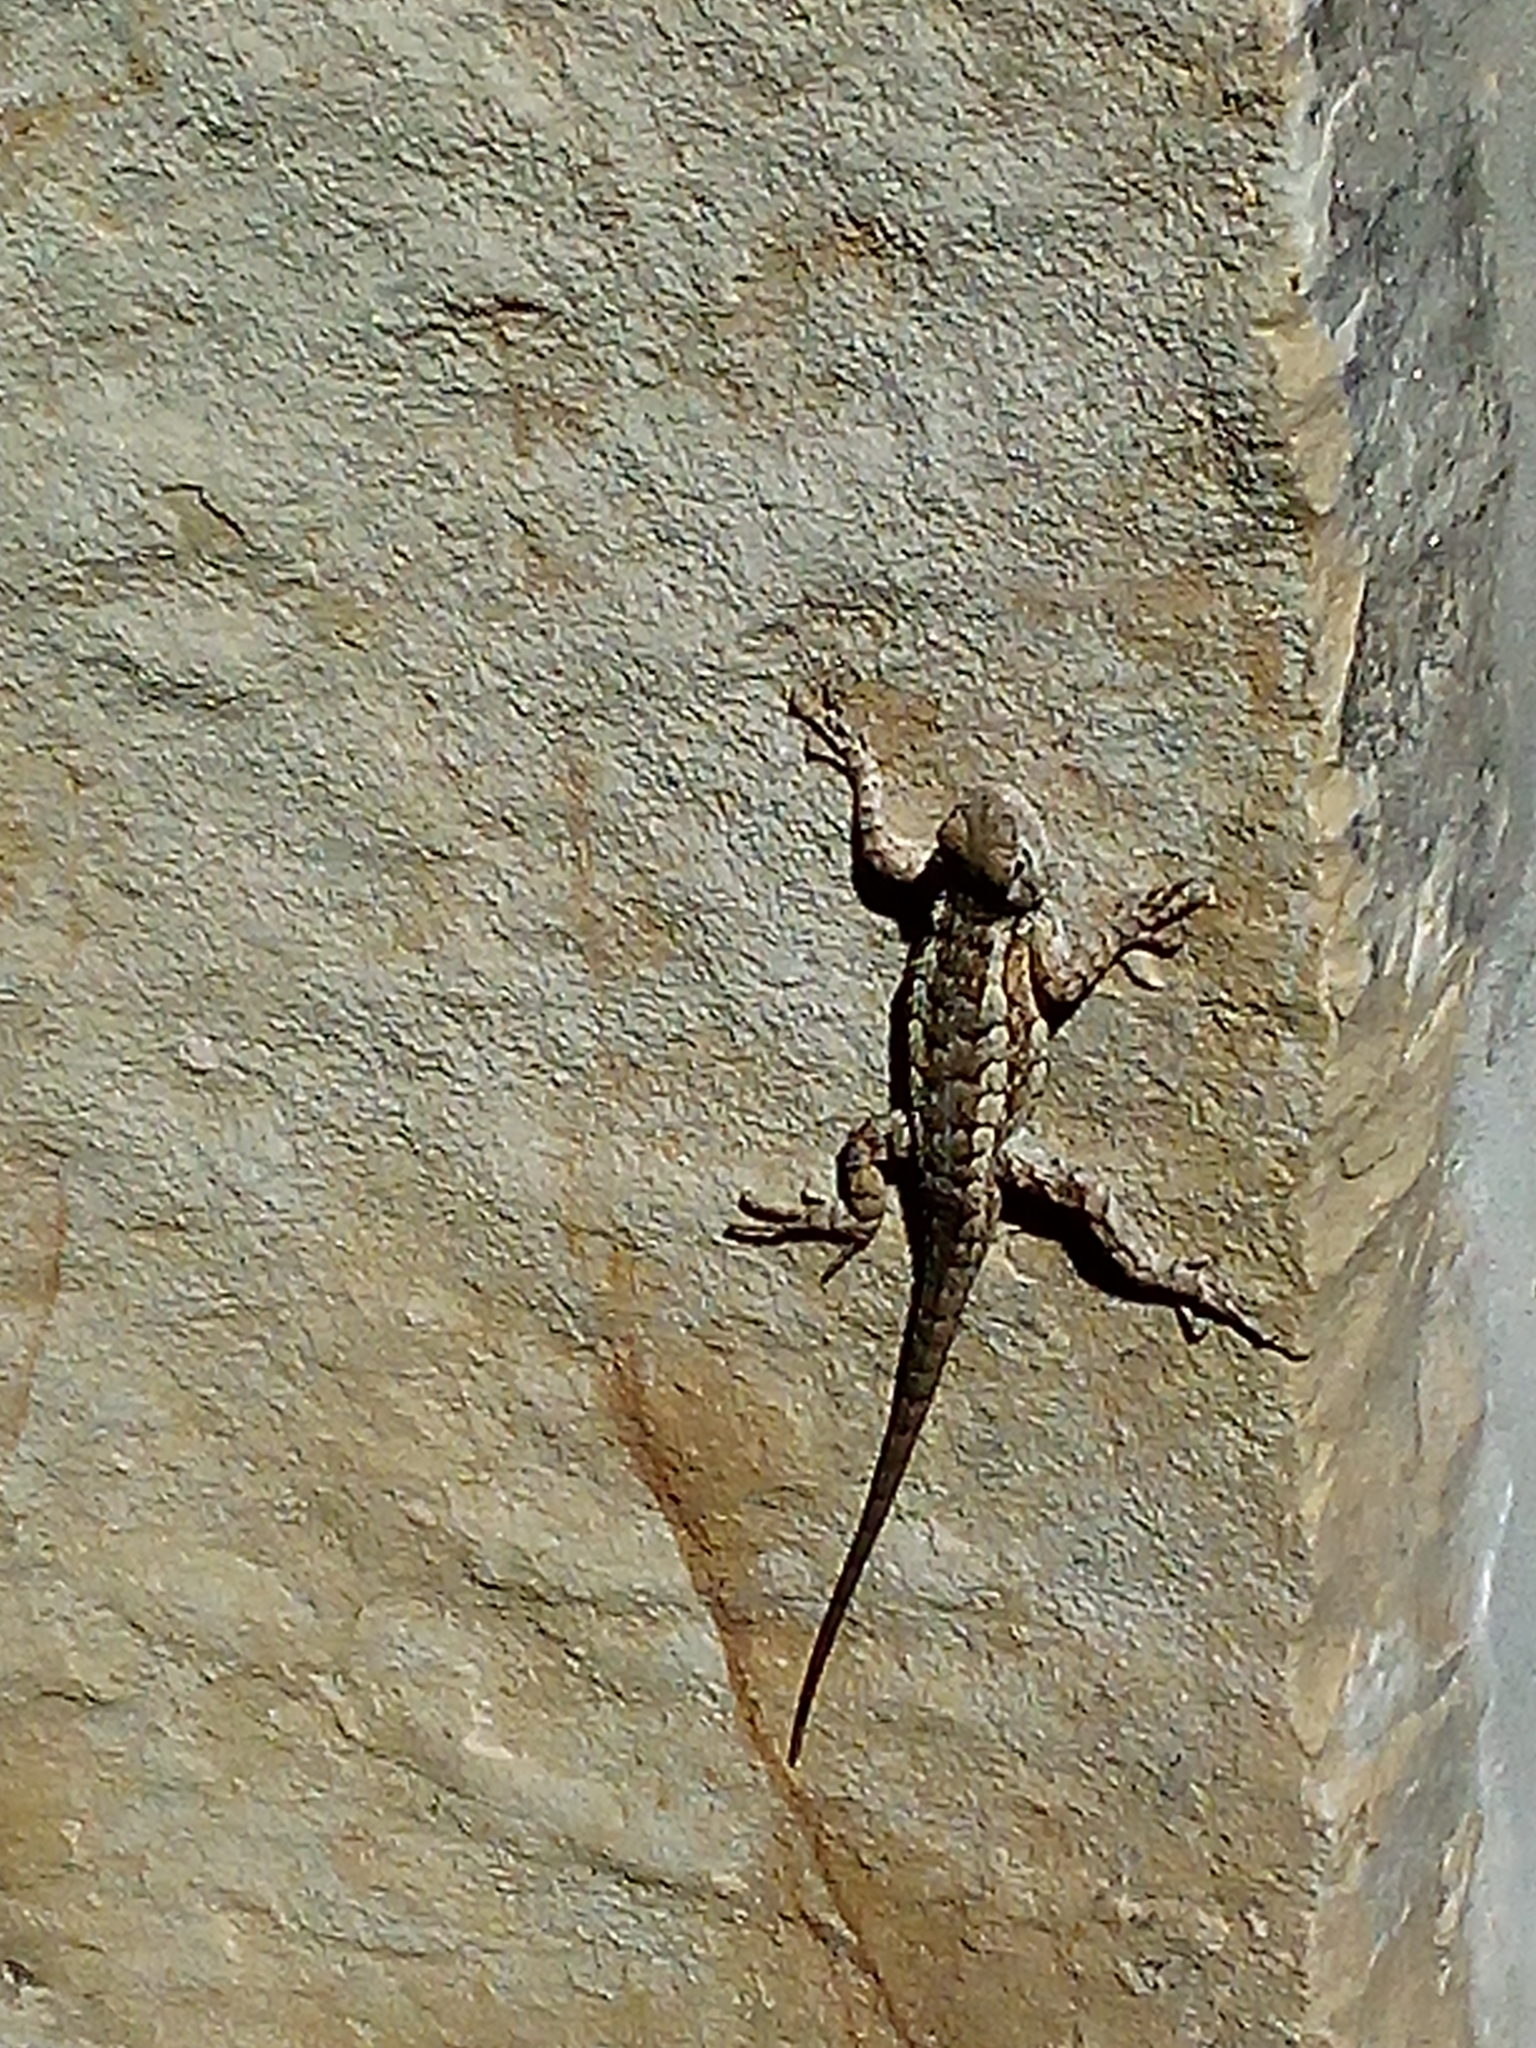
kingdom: Animalia
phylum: Chordata
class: Squamata
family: Phrynosomatidae
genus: Sceloporus
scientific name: Sceloporus olivaceus
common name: Texas spiny lizard
